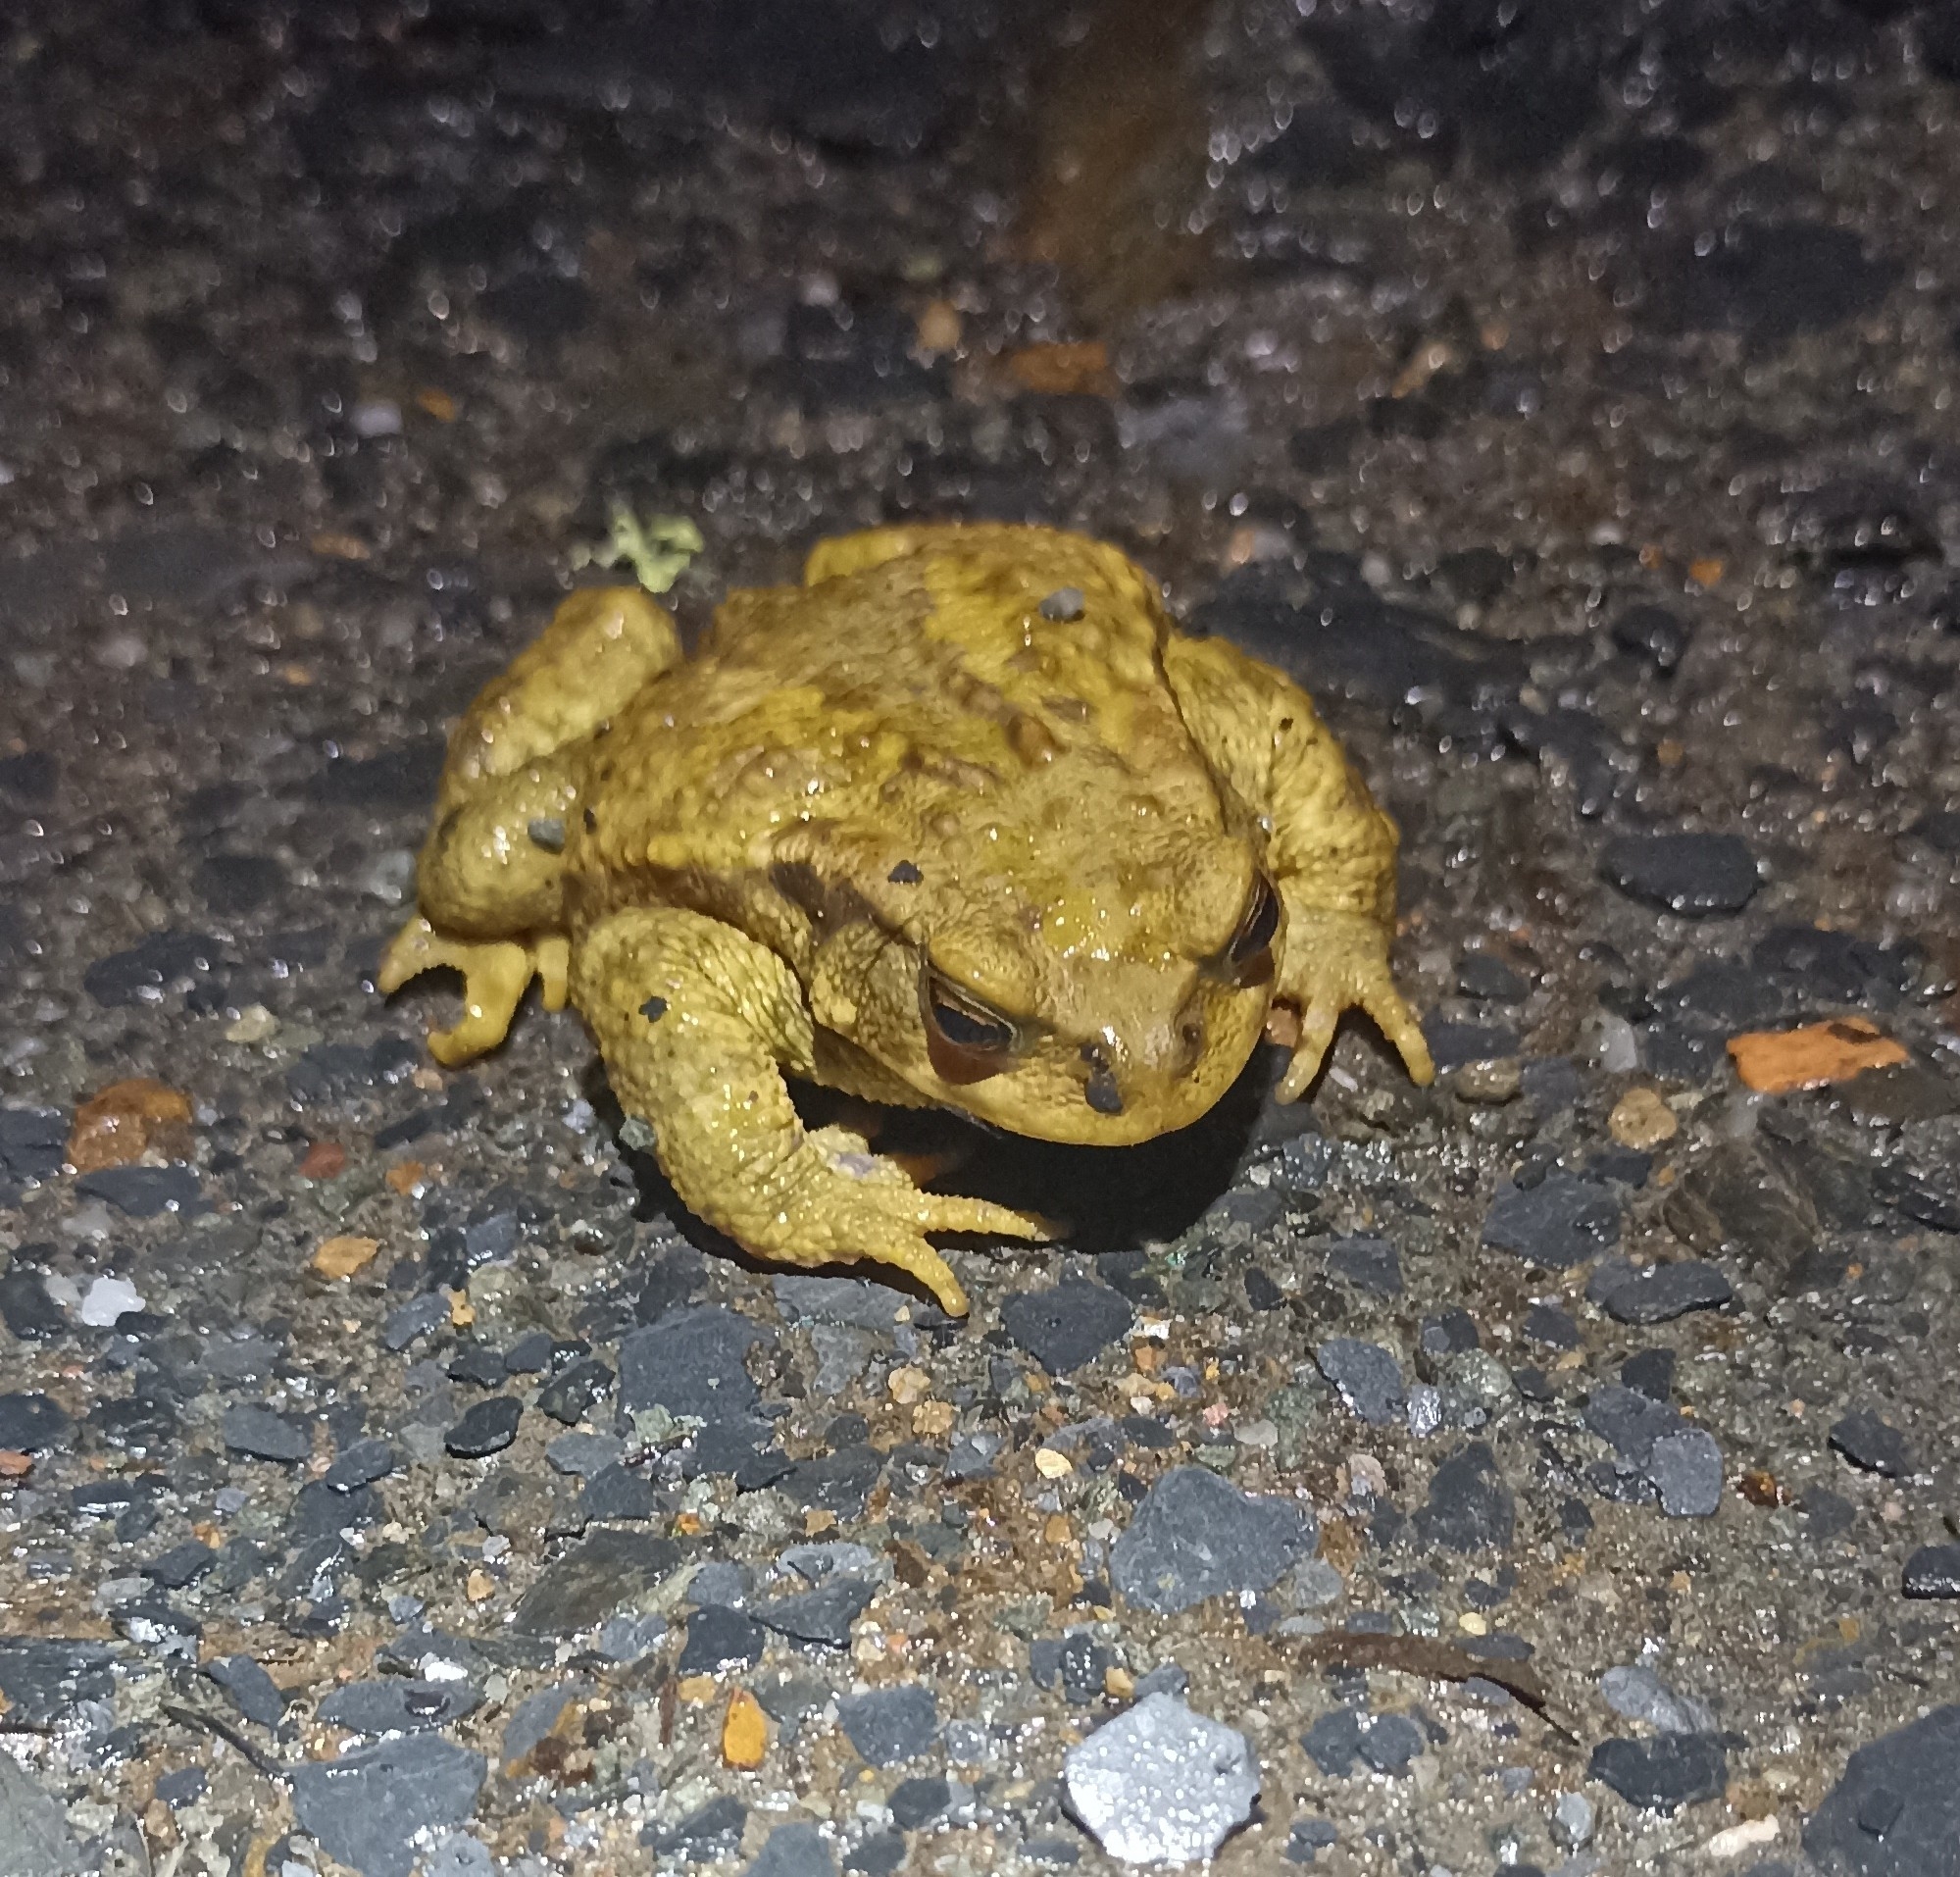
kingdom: Animalia
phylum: Chordata
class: Amphibia
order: Anura
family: Bufonidae
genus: Bufo
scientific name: Bufo spinosus
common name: Western common toad
